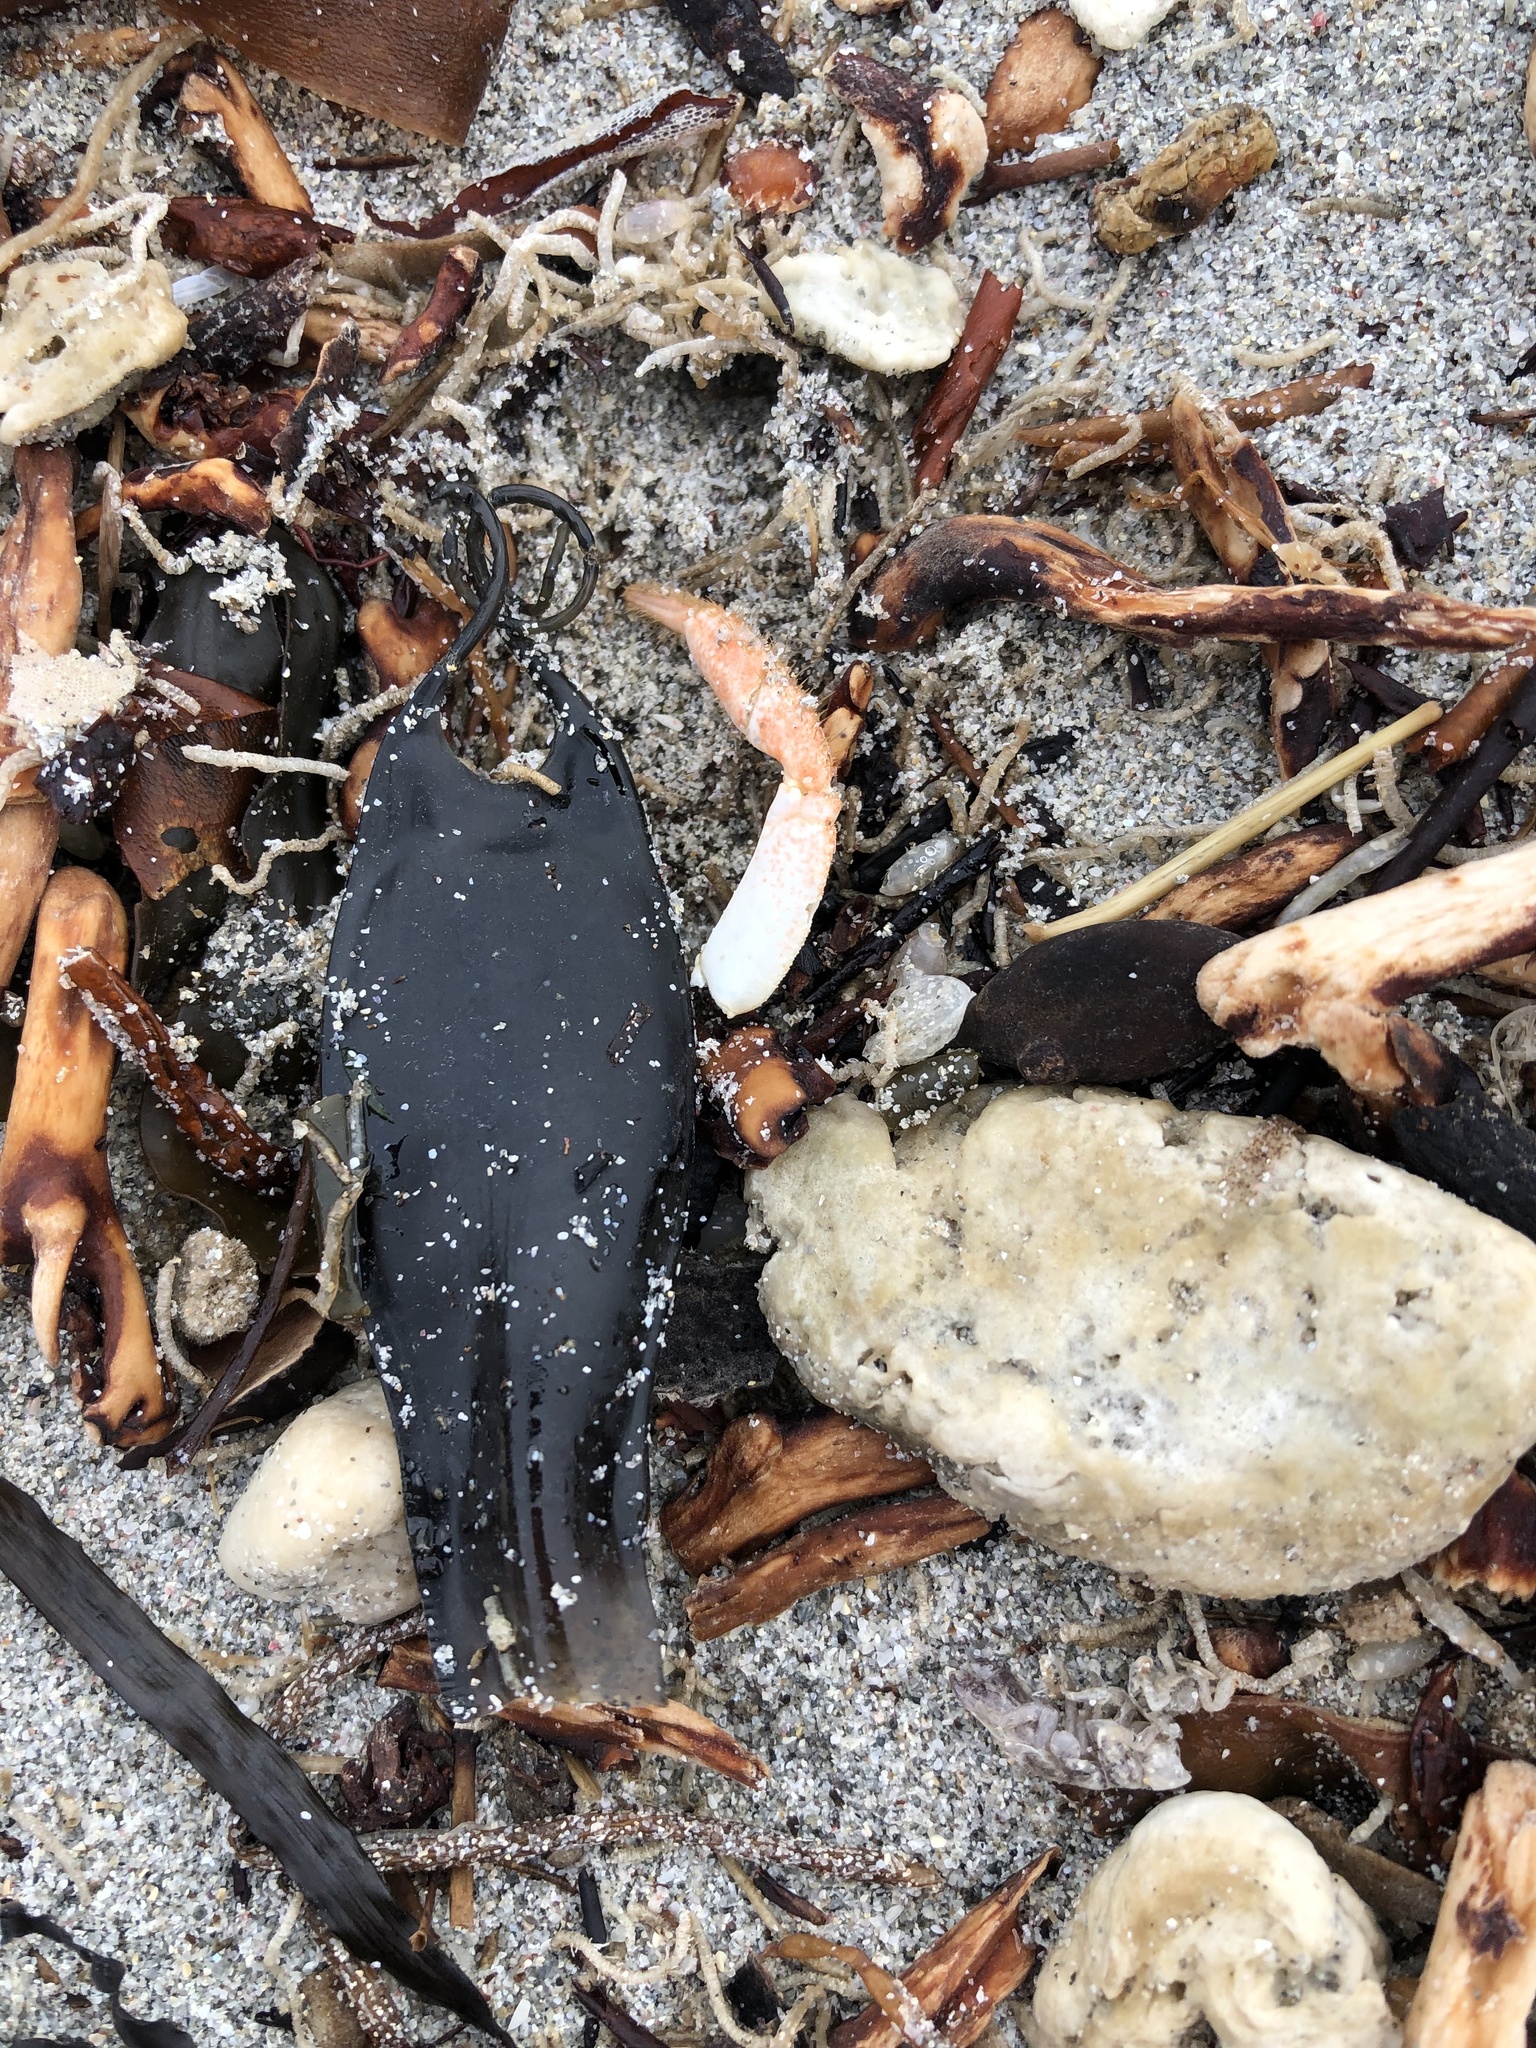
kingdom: Animalia
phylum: Chordata
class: Elasmobranchii
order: Carcharhiniformes
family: Scyliorhinidae
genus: Scyliorhinus
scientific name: Scyliorhinus canicula
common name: Lesser spotted dogfish
